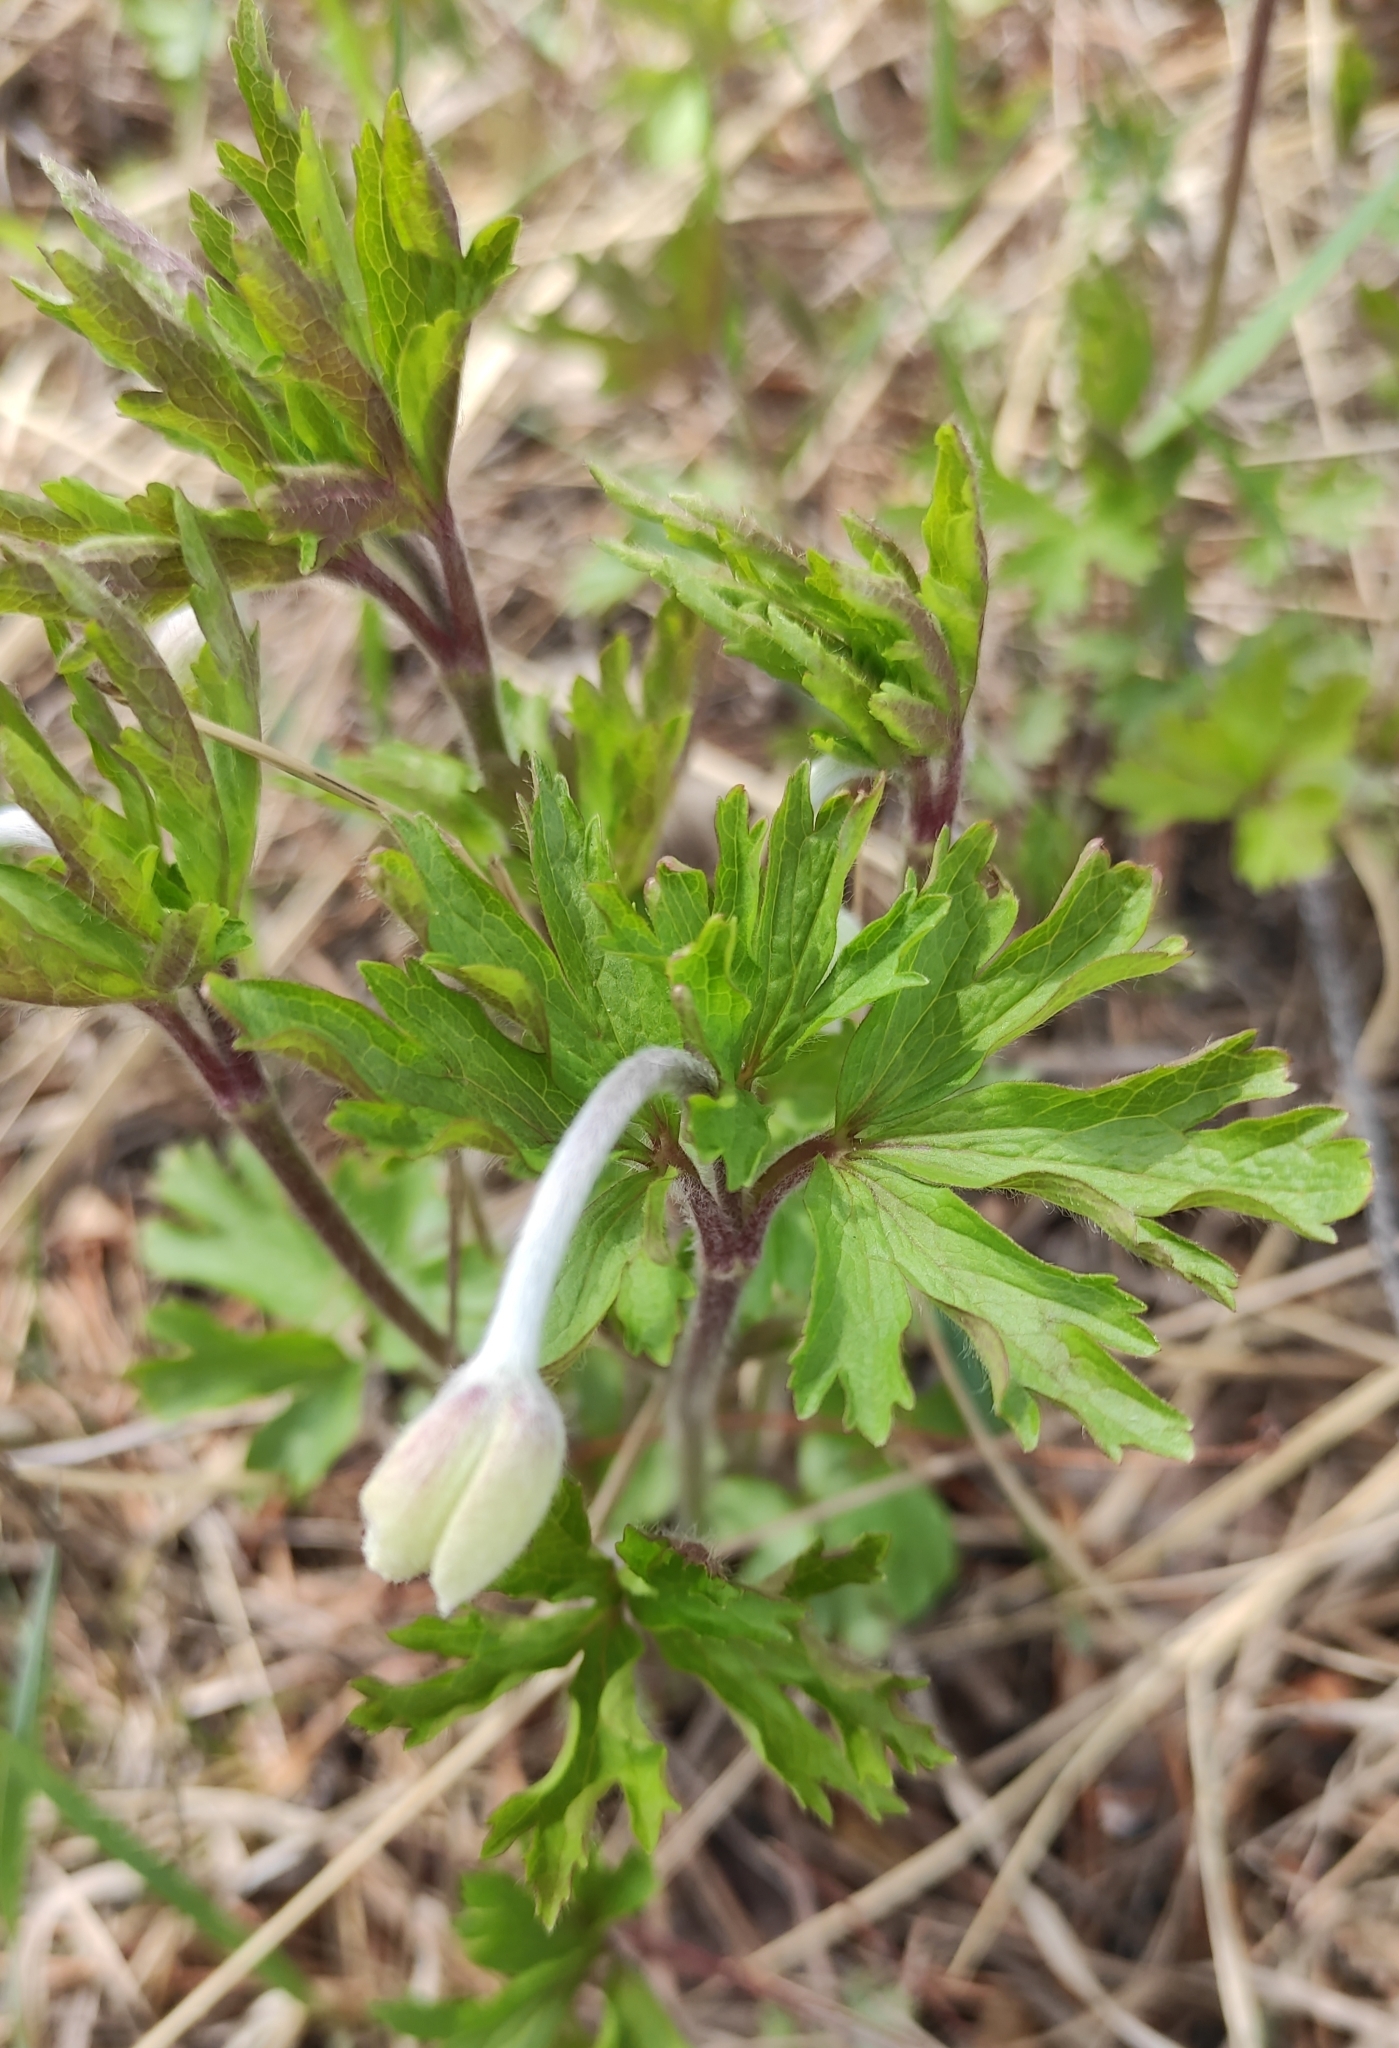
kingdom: Plantae
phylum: Tracheophyta
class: Magnoliopsida
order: Ranunculales
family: Ranunculaceae
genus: Anemone
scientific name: Anemone sylvestris
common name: Snowdrop anemone
